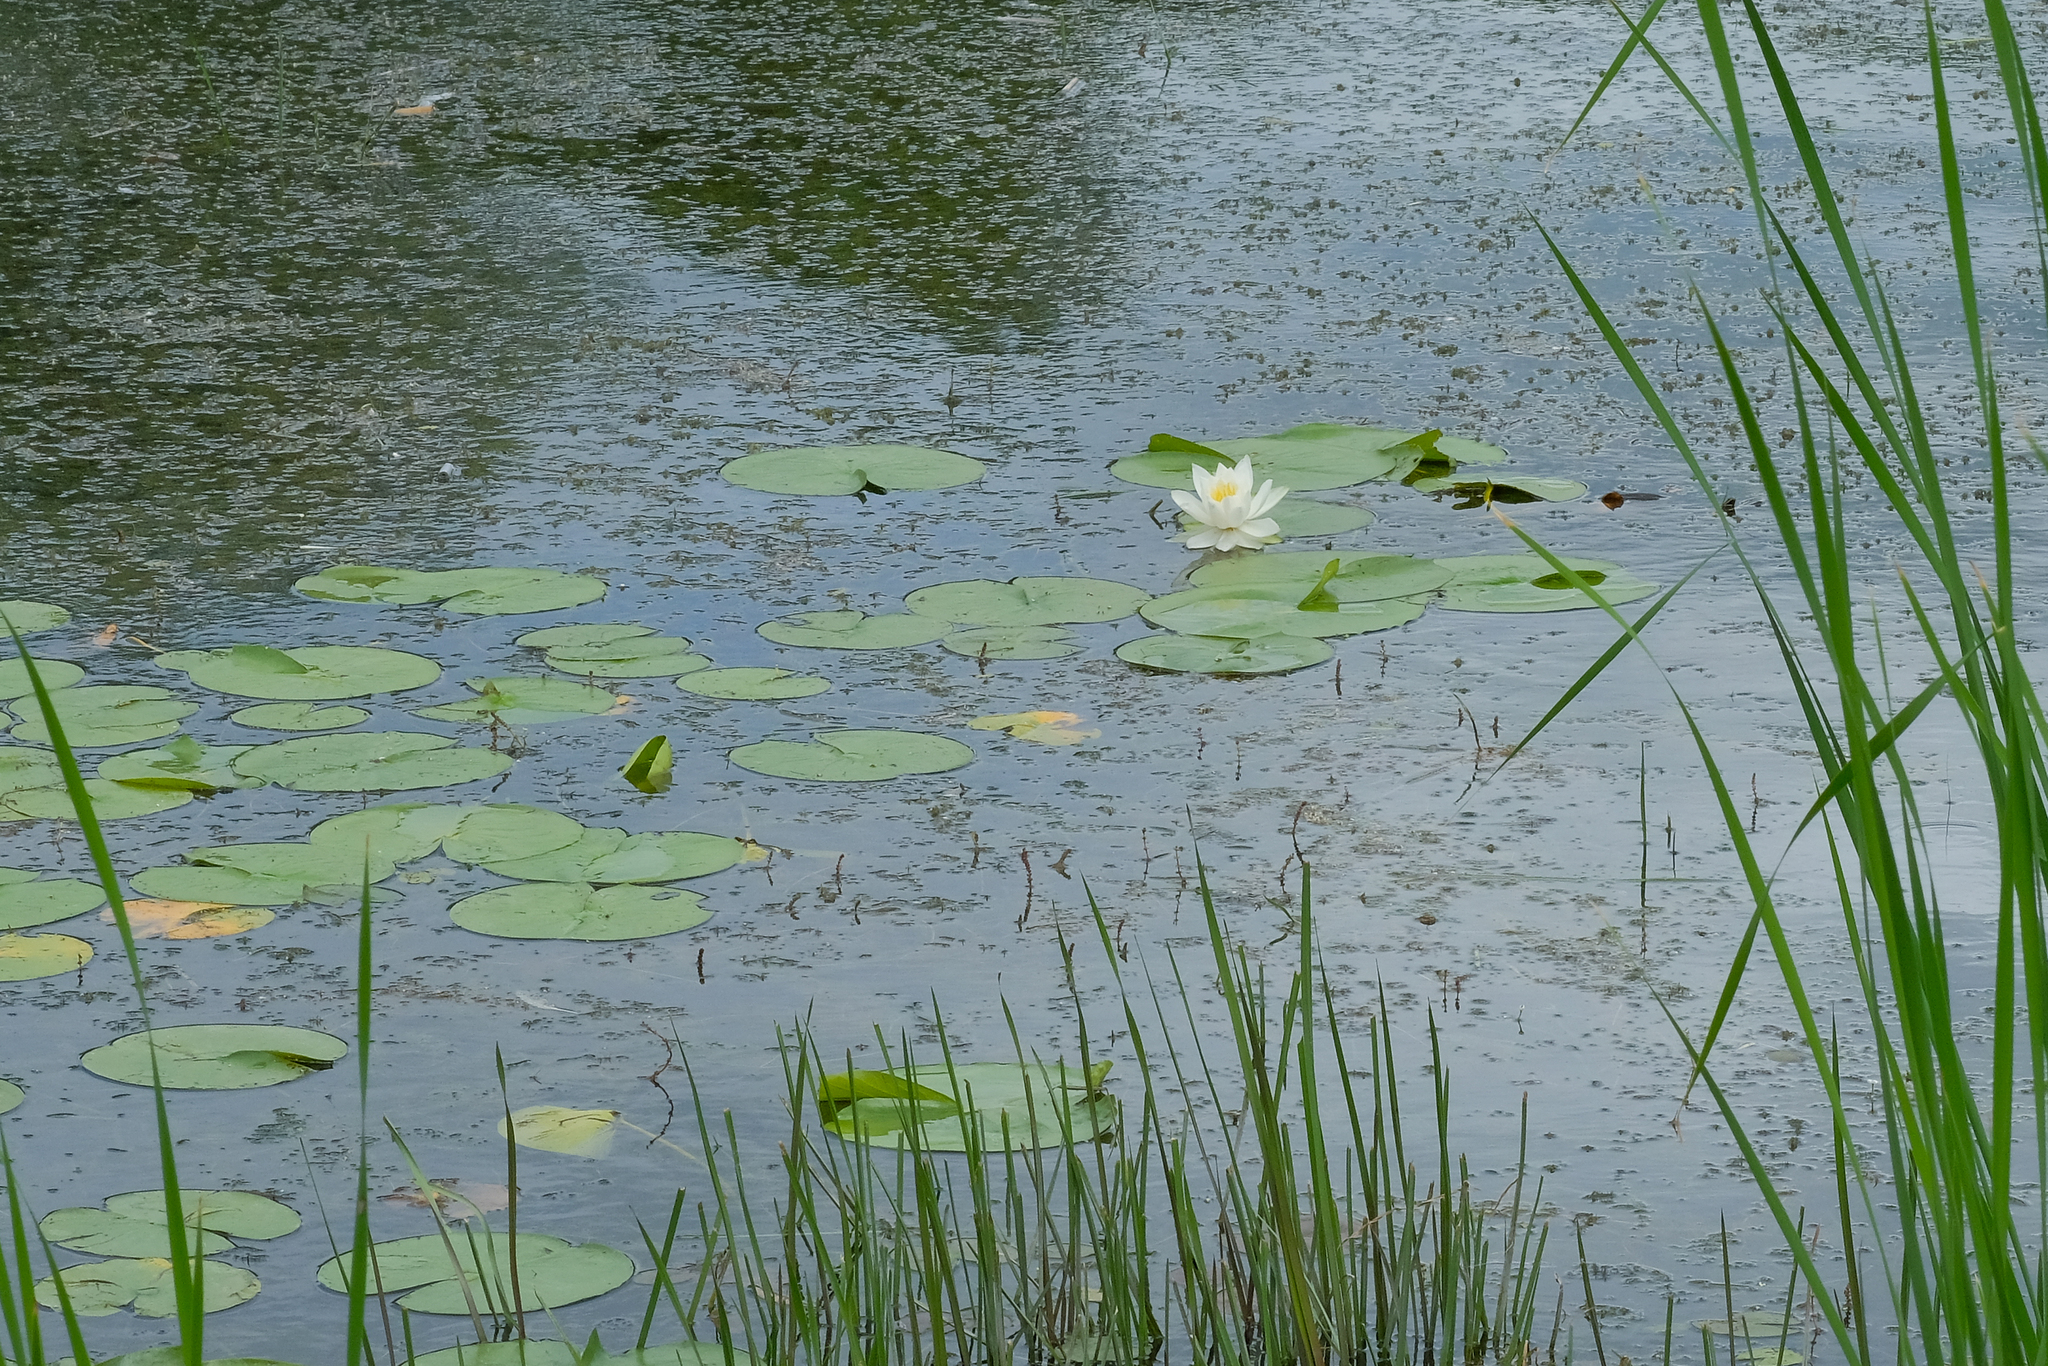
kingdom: Plantae
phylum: Tracheophyta
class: Magnoliopsida
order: Nymphaeales
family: Nymphaeaceae
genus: Nymphaea
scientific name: Nymphaea odorata
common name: Fragrant water-lily
